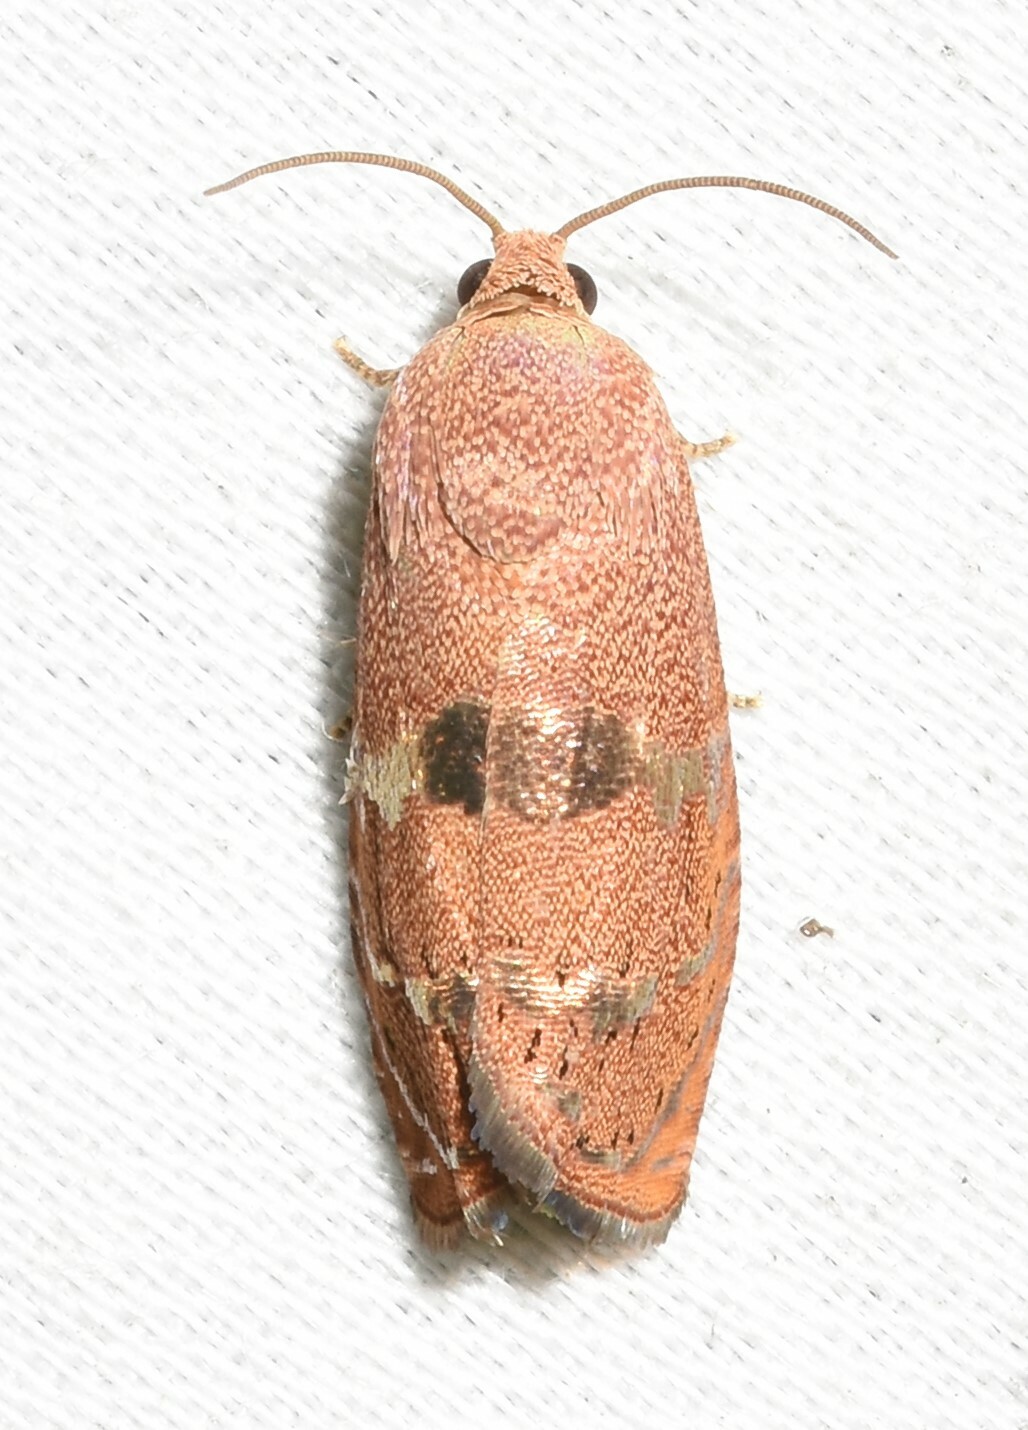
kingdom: Animalia
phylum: Arthropoda
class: Insecta
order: Lepidoptera
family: Tortricidae
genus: Cydia
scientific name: Cydia latiferreana
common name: Filbertworm moth
